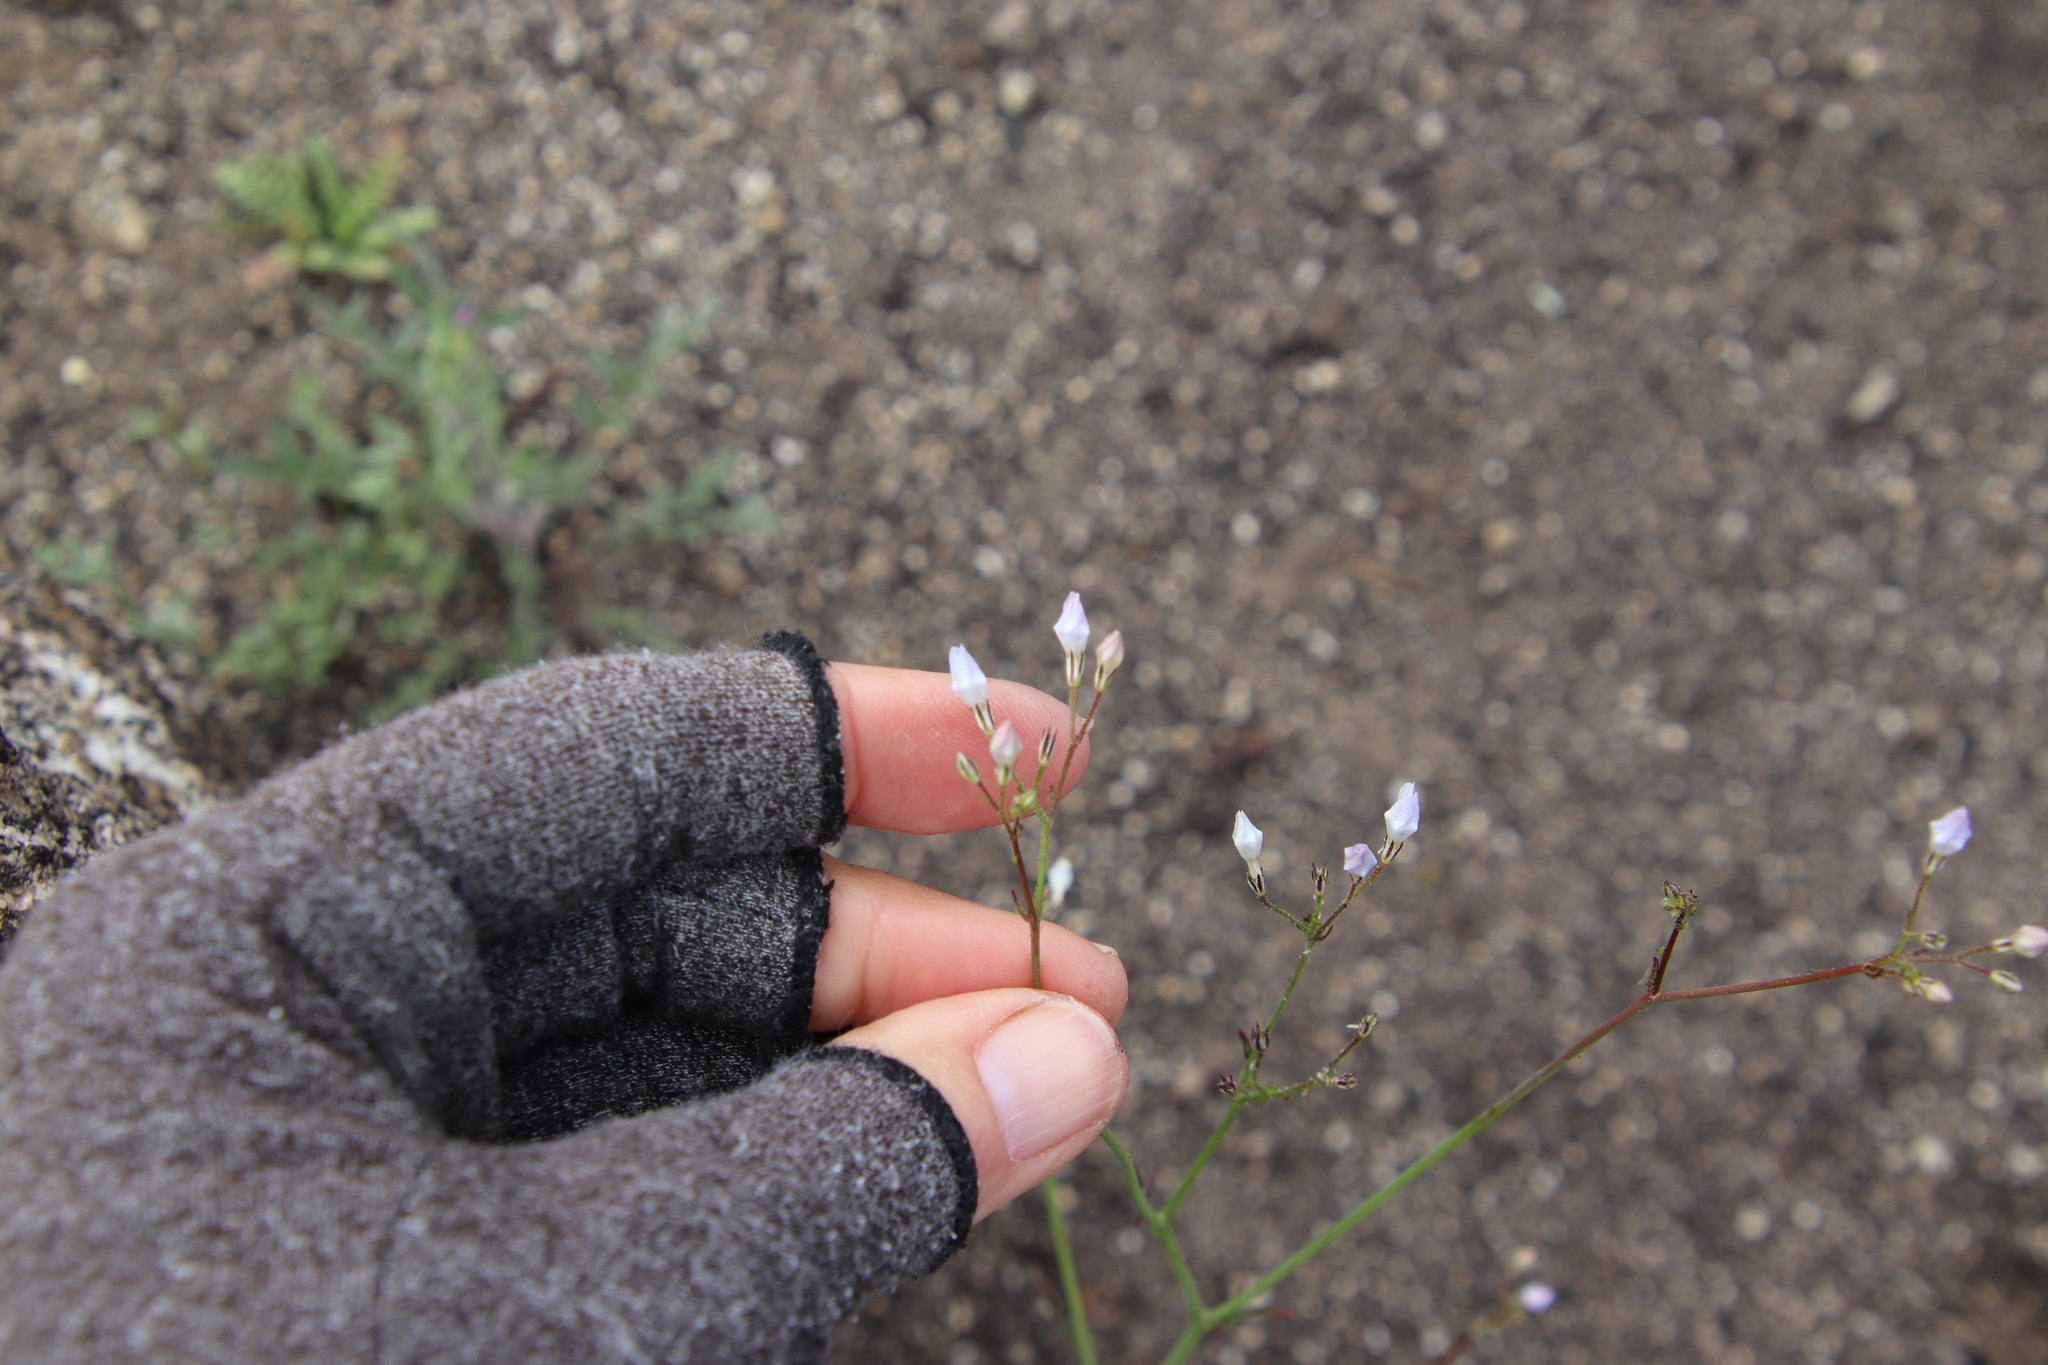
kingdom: Plantae
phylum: Tracheophyta
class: Magnoliopsida
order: Ericales
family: Polemoniaceae
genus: Saltugilia
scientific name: Saltugilia australis
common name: Southern gilia
